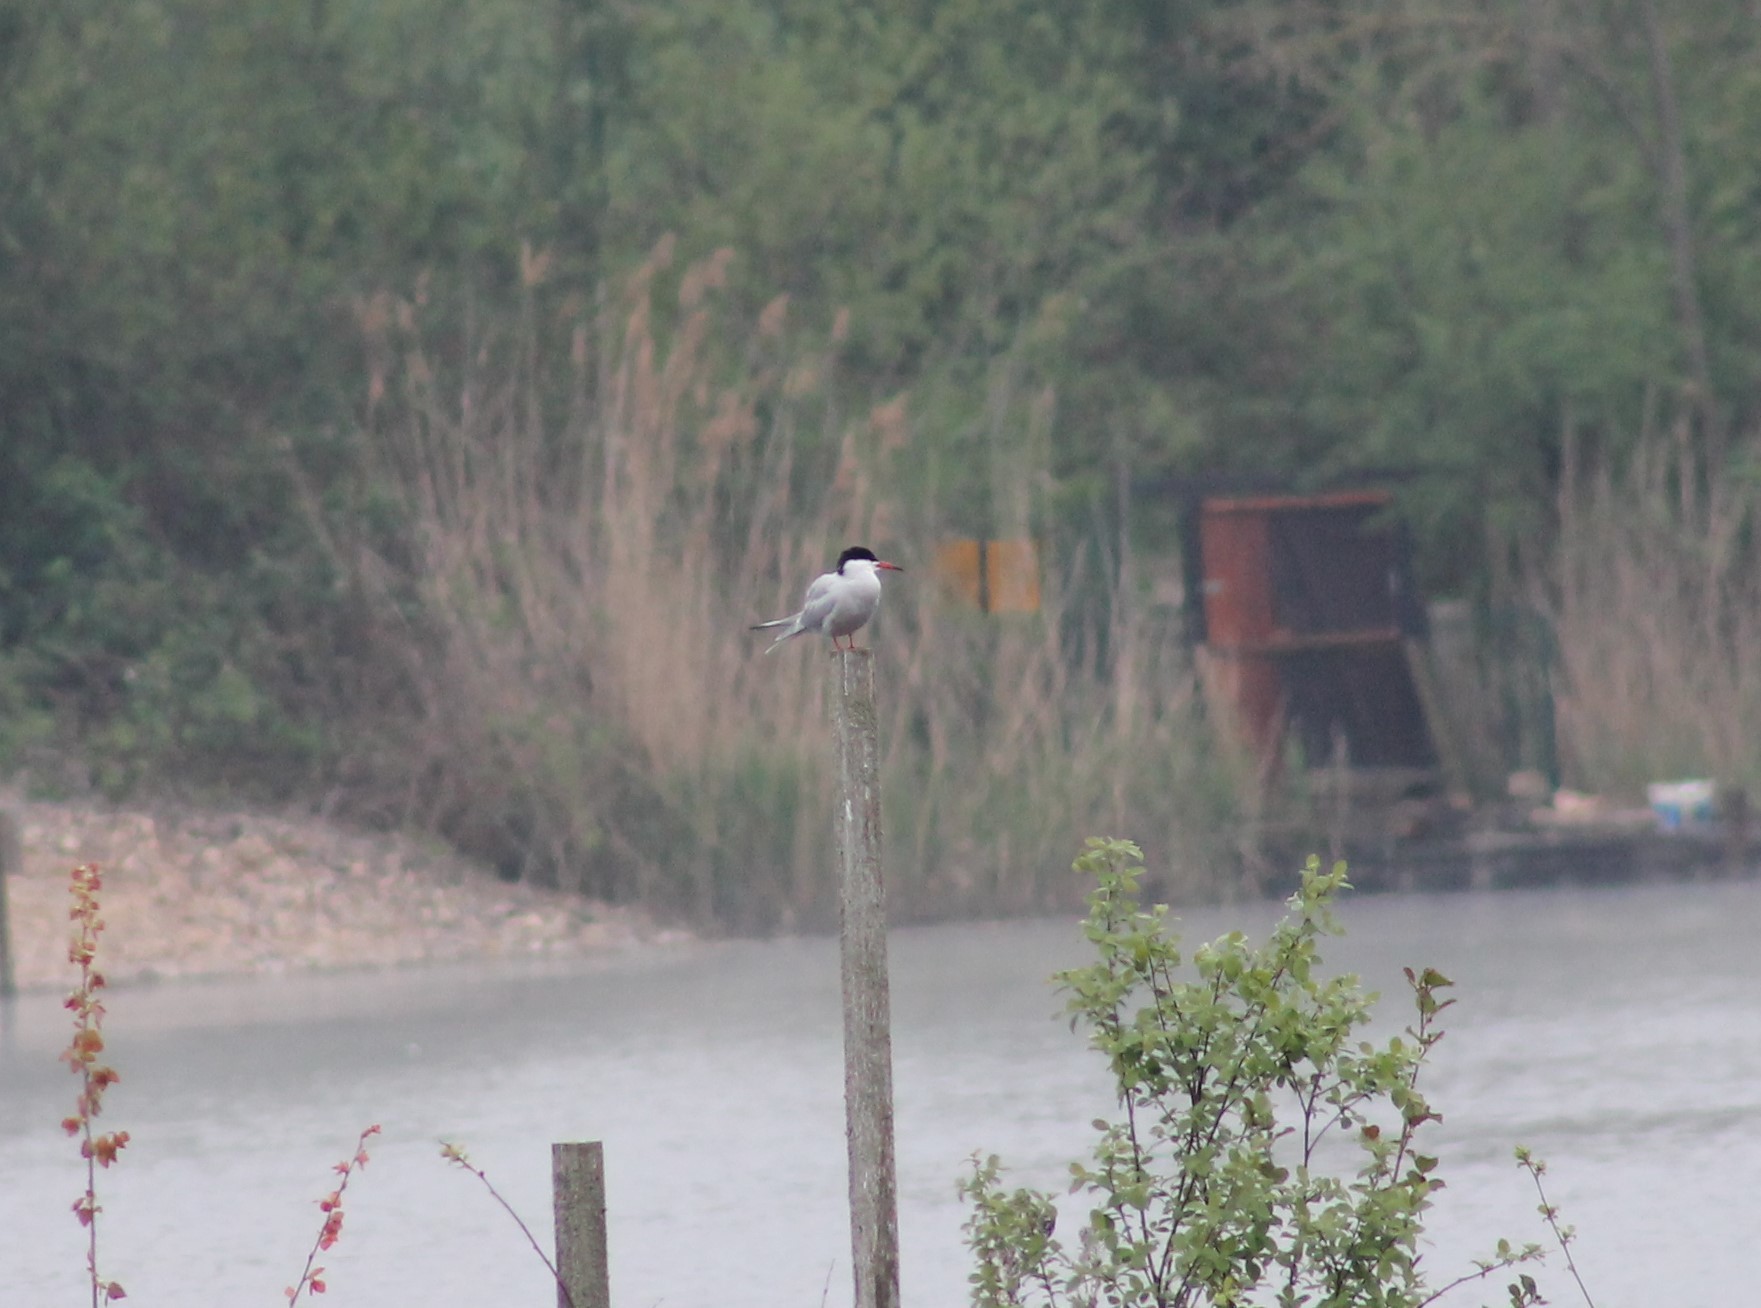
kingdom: Animalia
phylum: Chordata
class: Aves
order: Charadriiformes
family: Laridae
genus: Sterna
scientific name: Sterna hirundo
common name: Common tern
